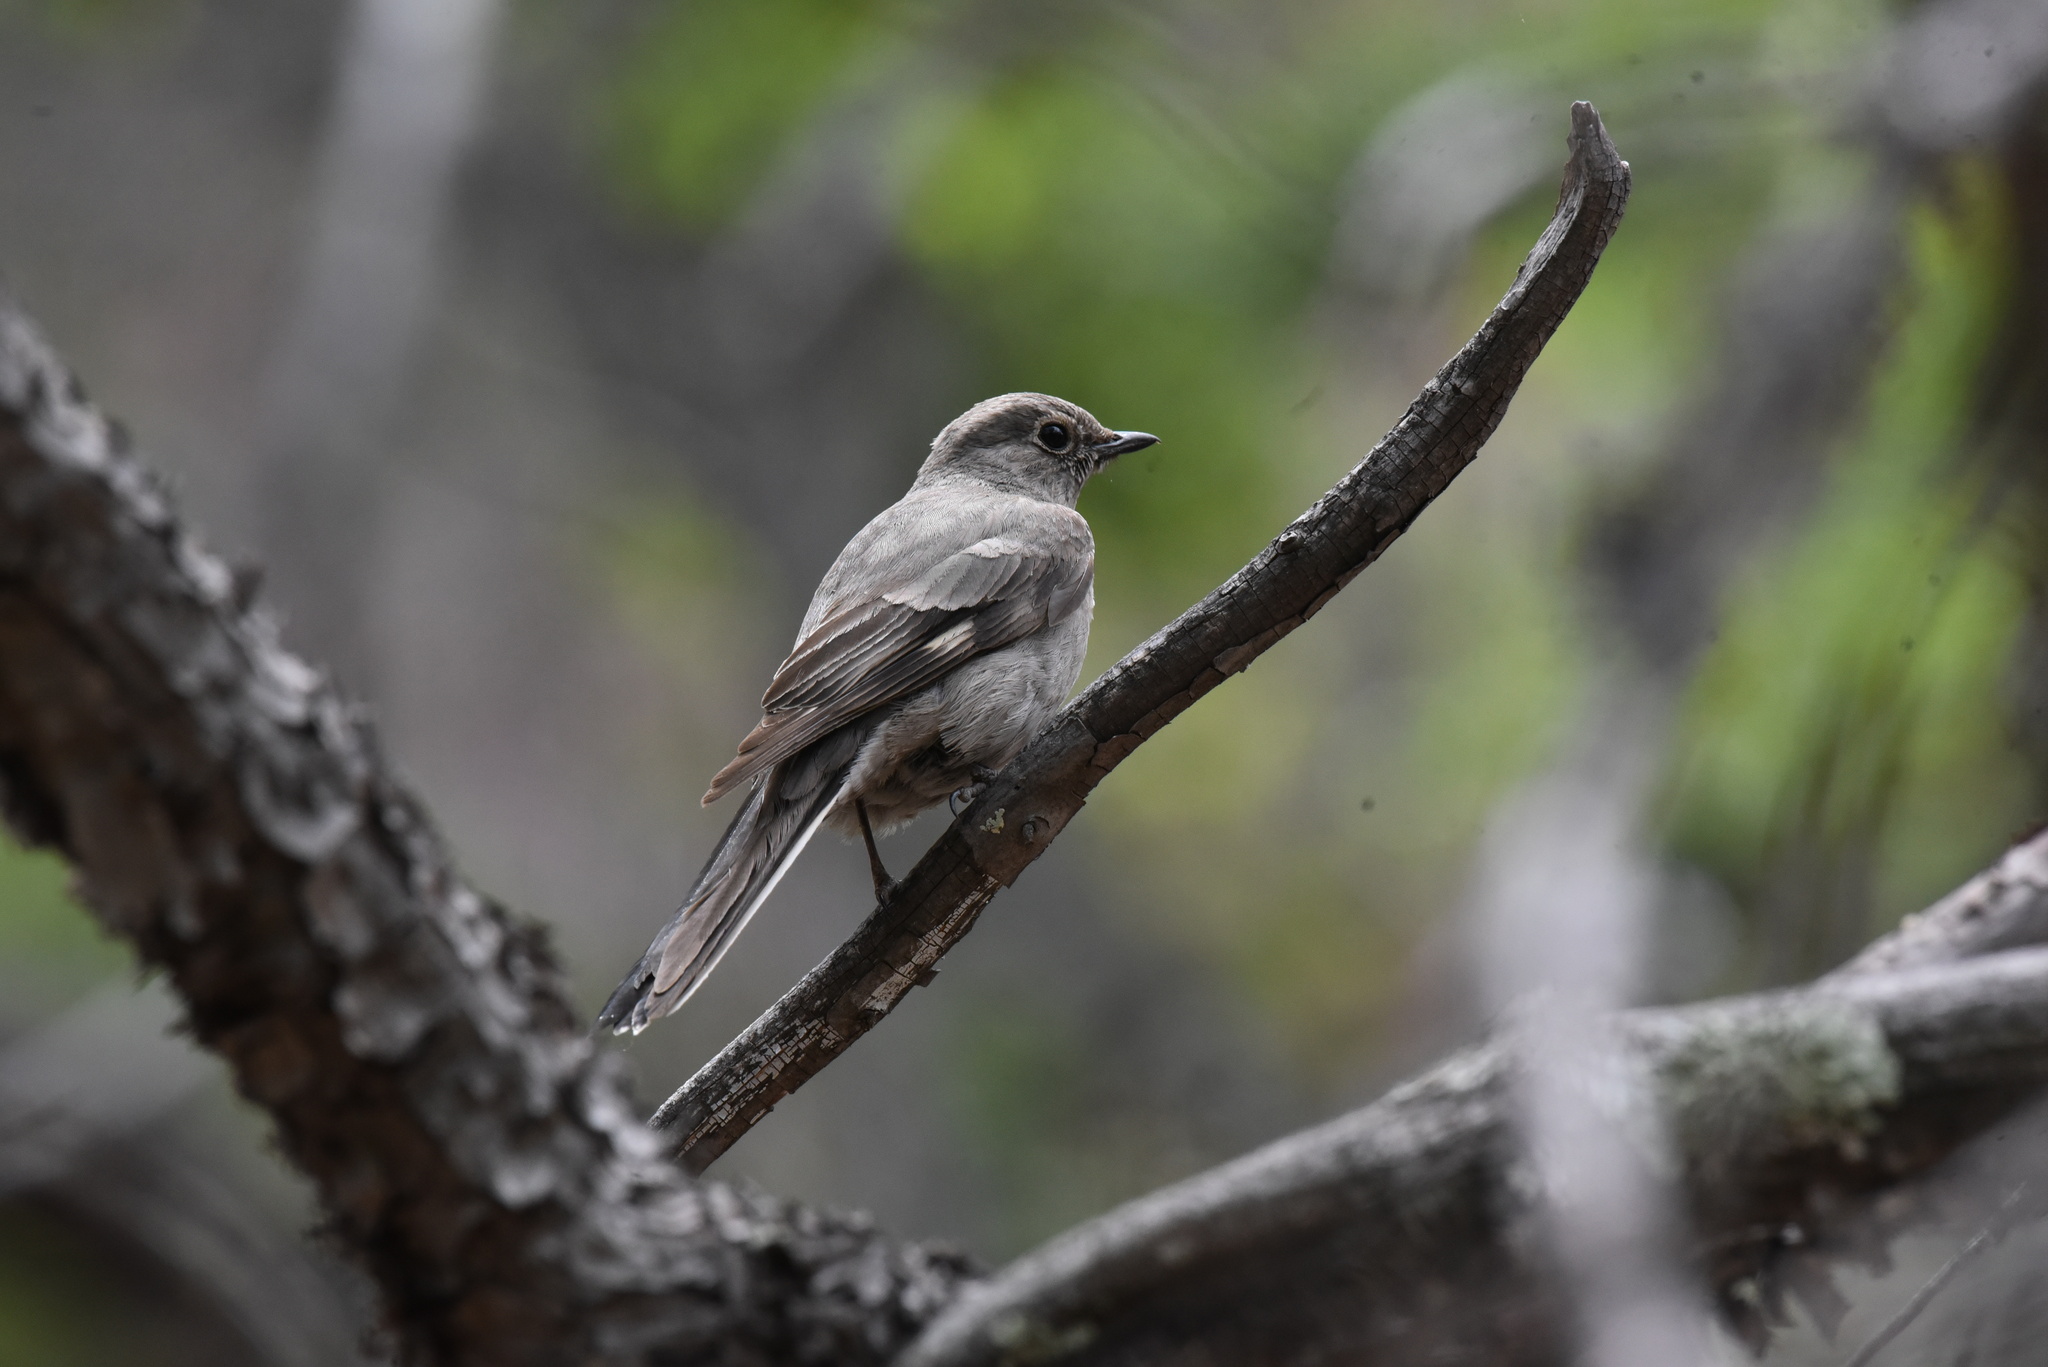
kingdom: Animalia
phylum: Chordata
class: Aves
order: Passeriformes
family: Turdidae
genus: Myadestes
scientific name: Myadestes townsendi
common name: Townsend's solitaire
